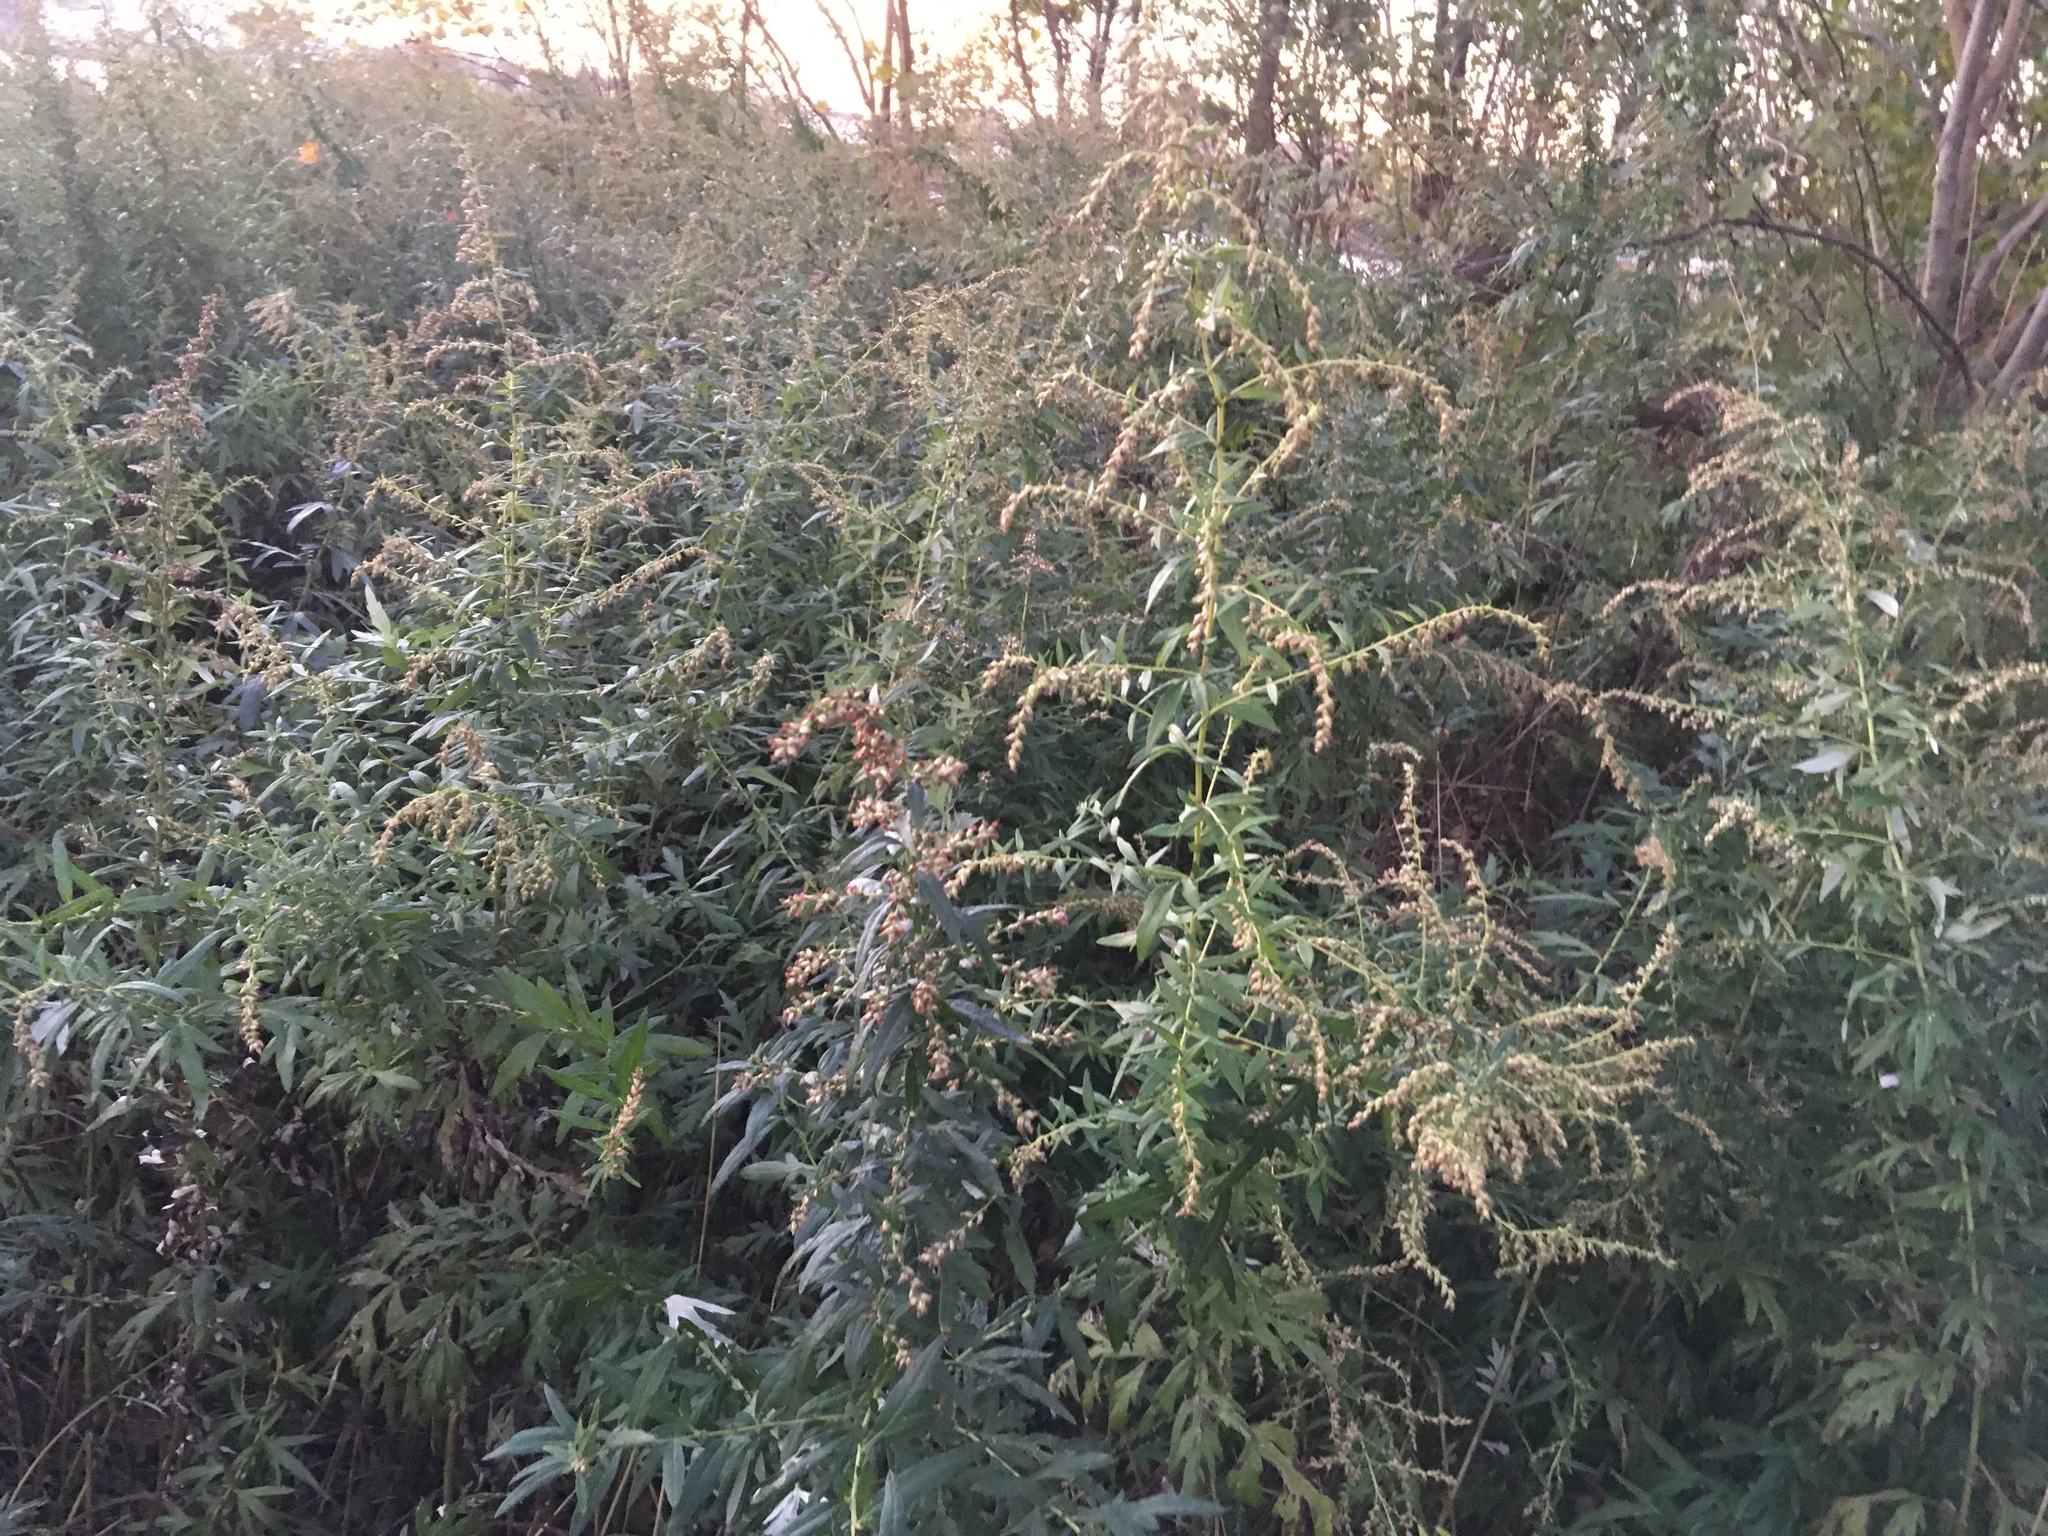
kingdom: Plantae
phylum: Tracheophyta
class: Magnoliopsida
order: Asterales
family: Asteraceae
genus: Artemisia
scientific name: Artemisia vulgaris
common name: Mugwort
